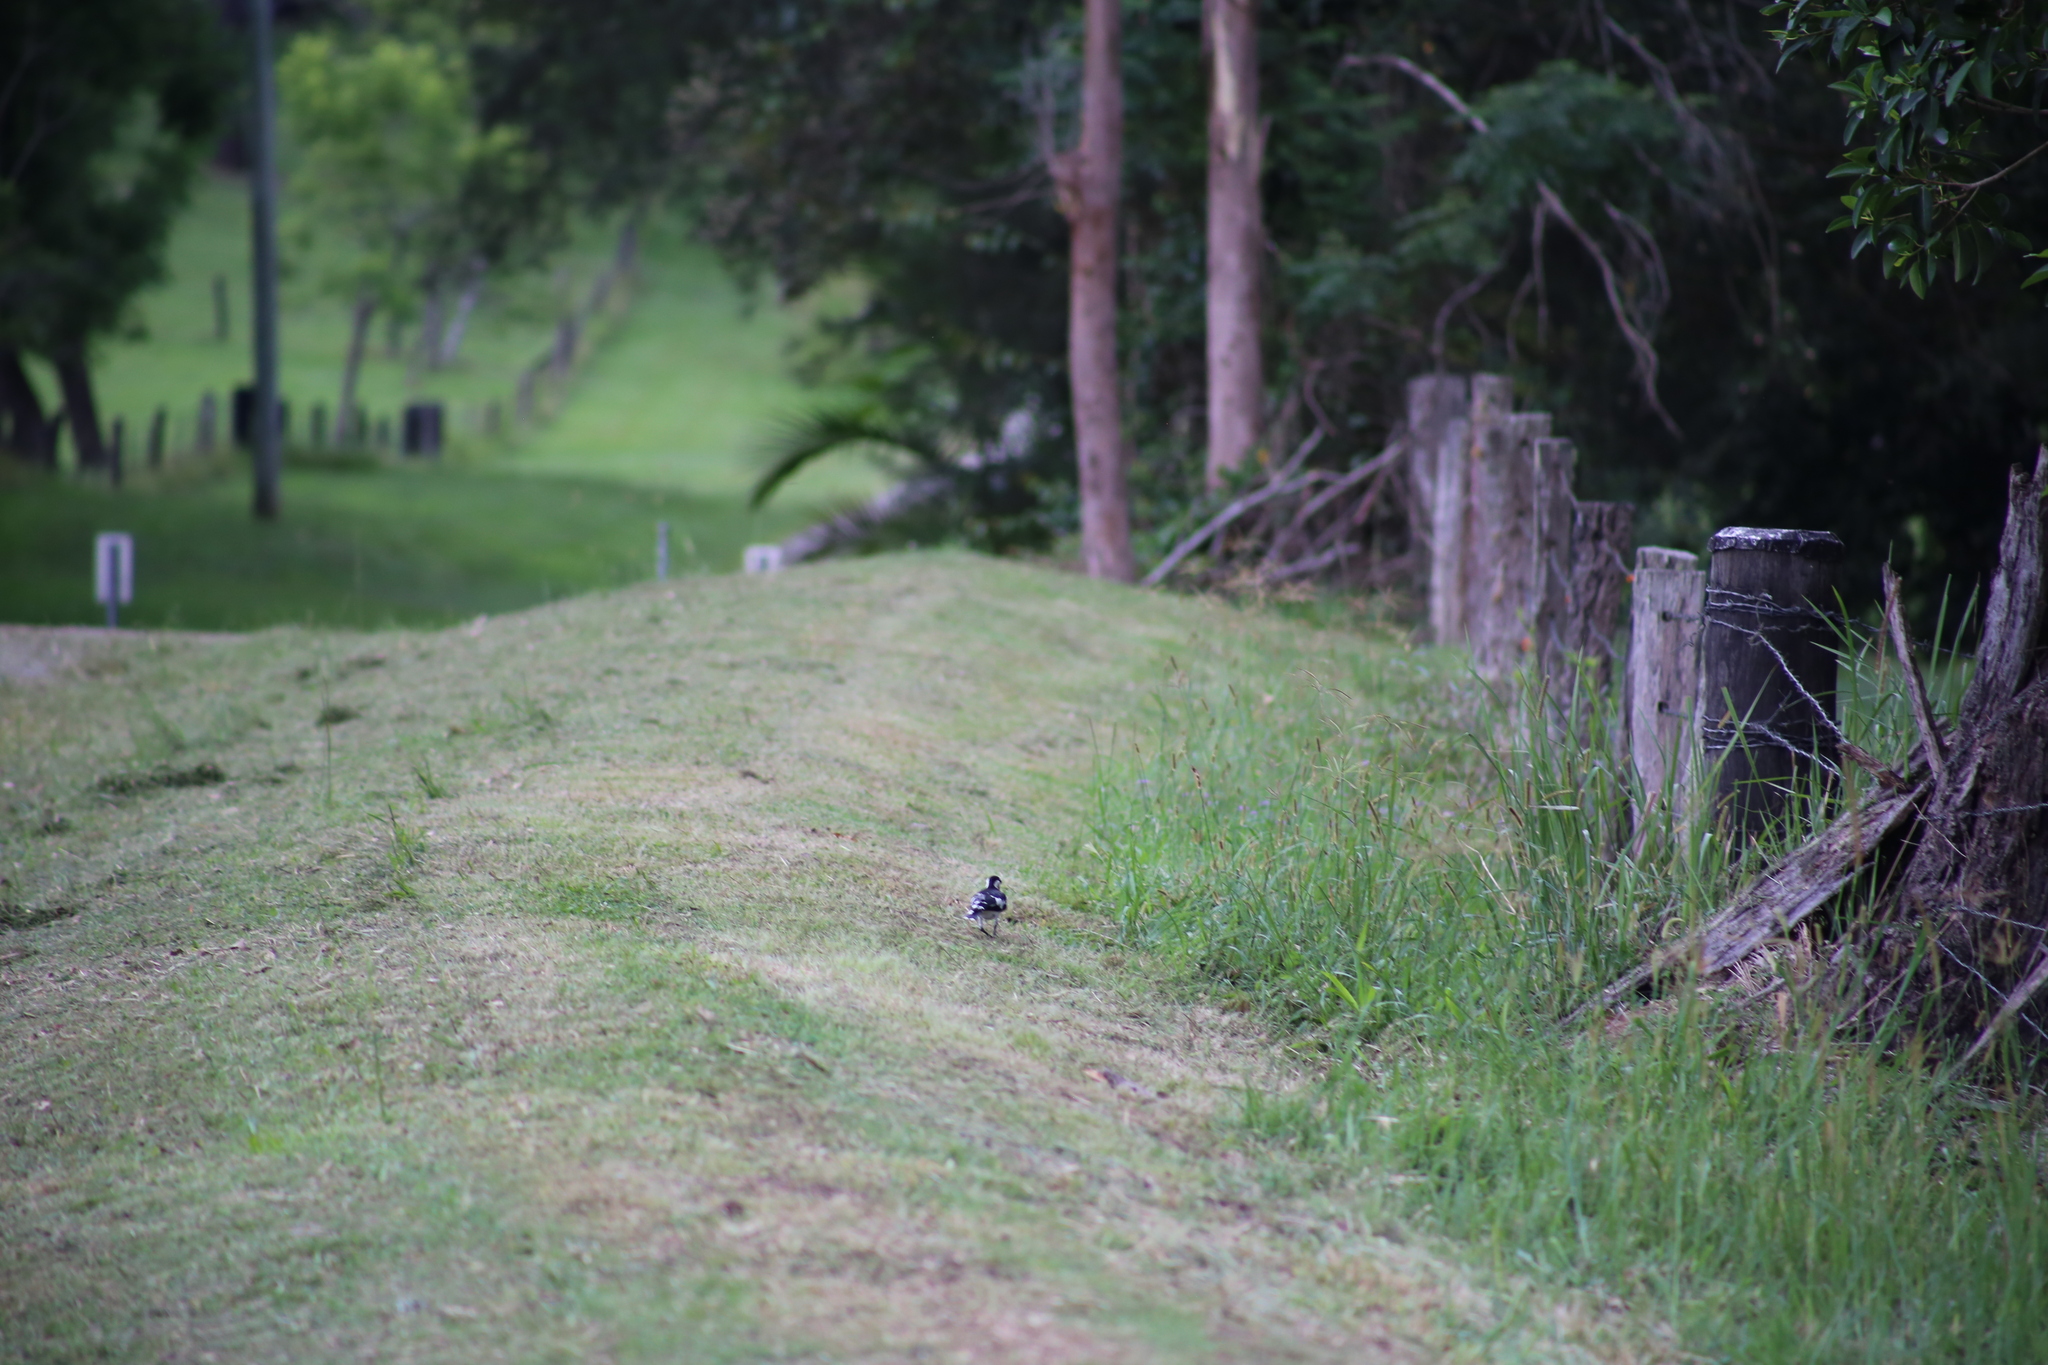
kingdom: Animalia
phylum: Chordata
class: Aves
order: Passeriformes
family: Monarchidae
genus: Grallina
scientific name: Grallina cyanoleuca
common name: Magpie-lark
